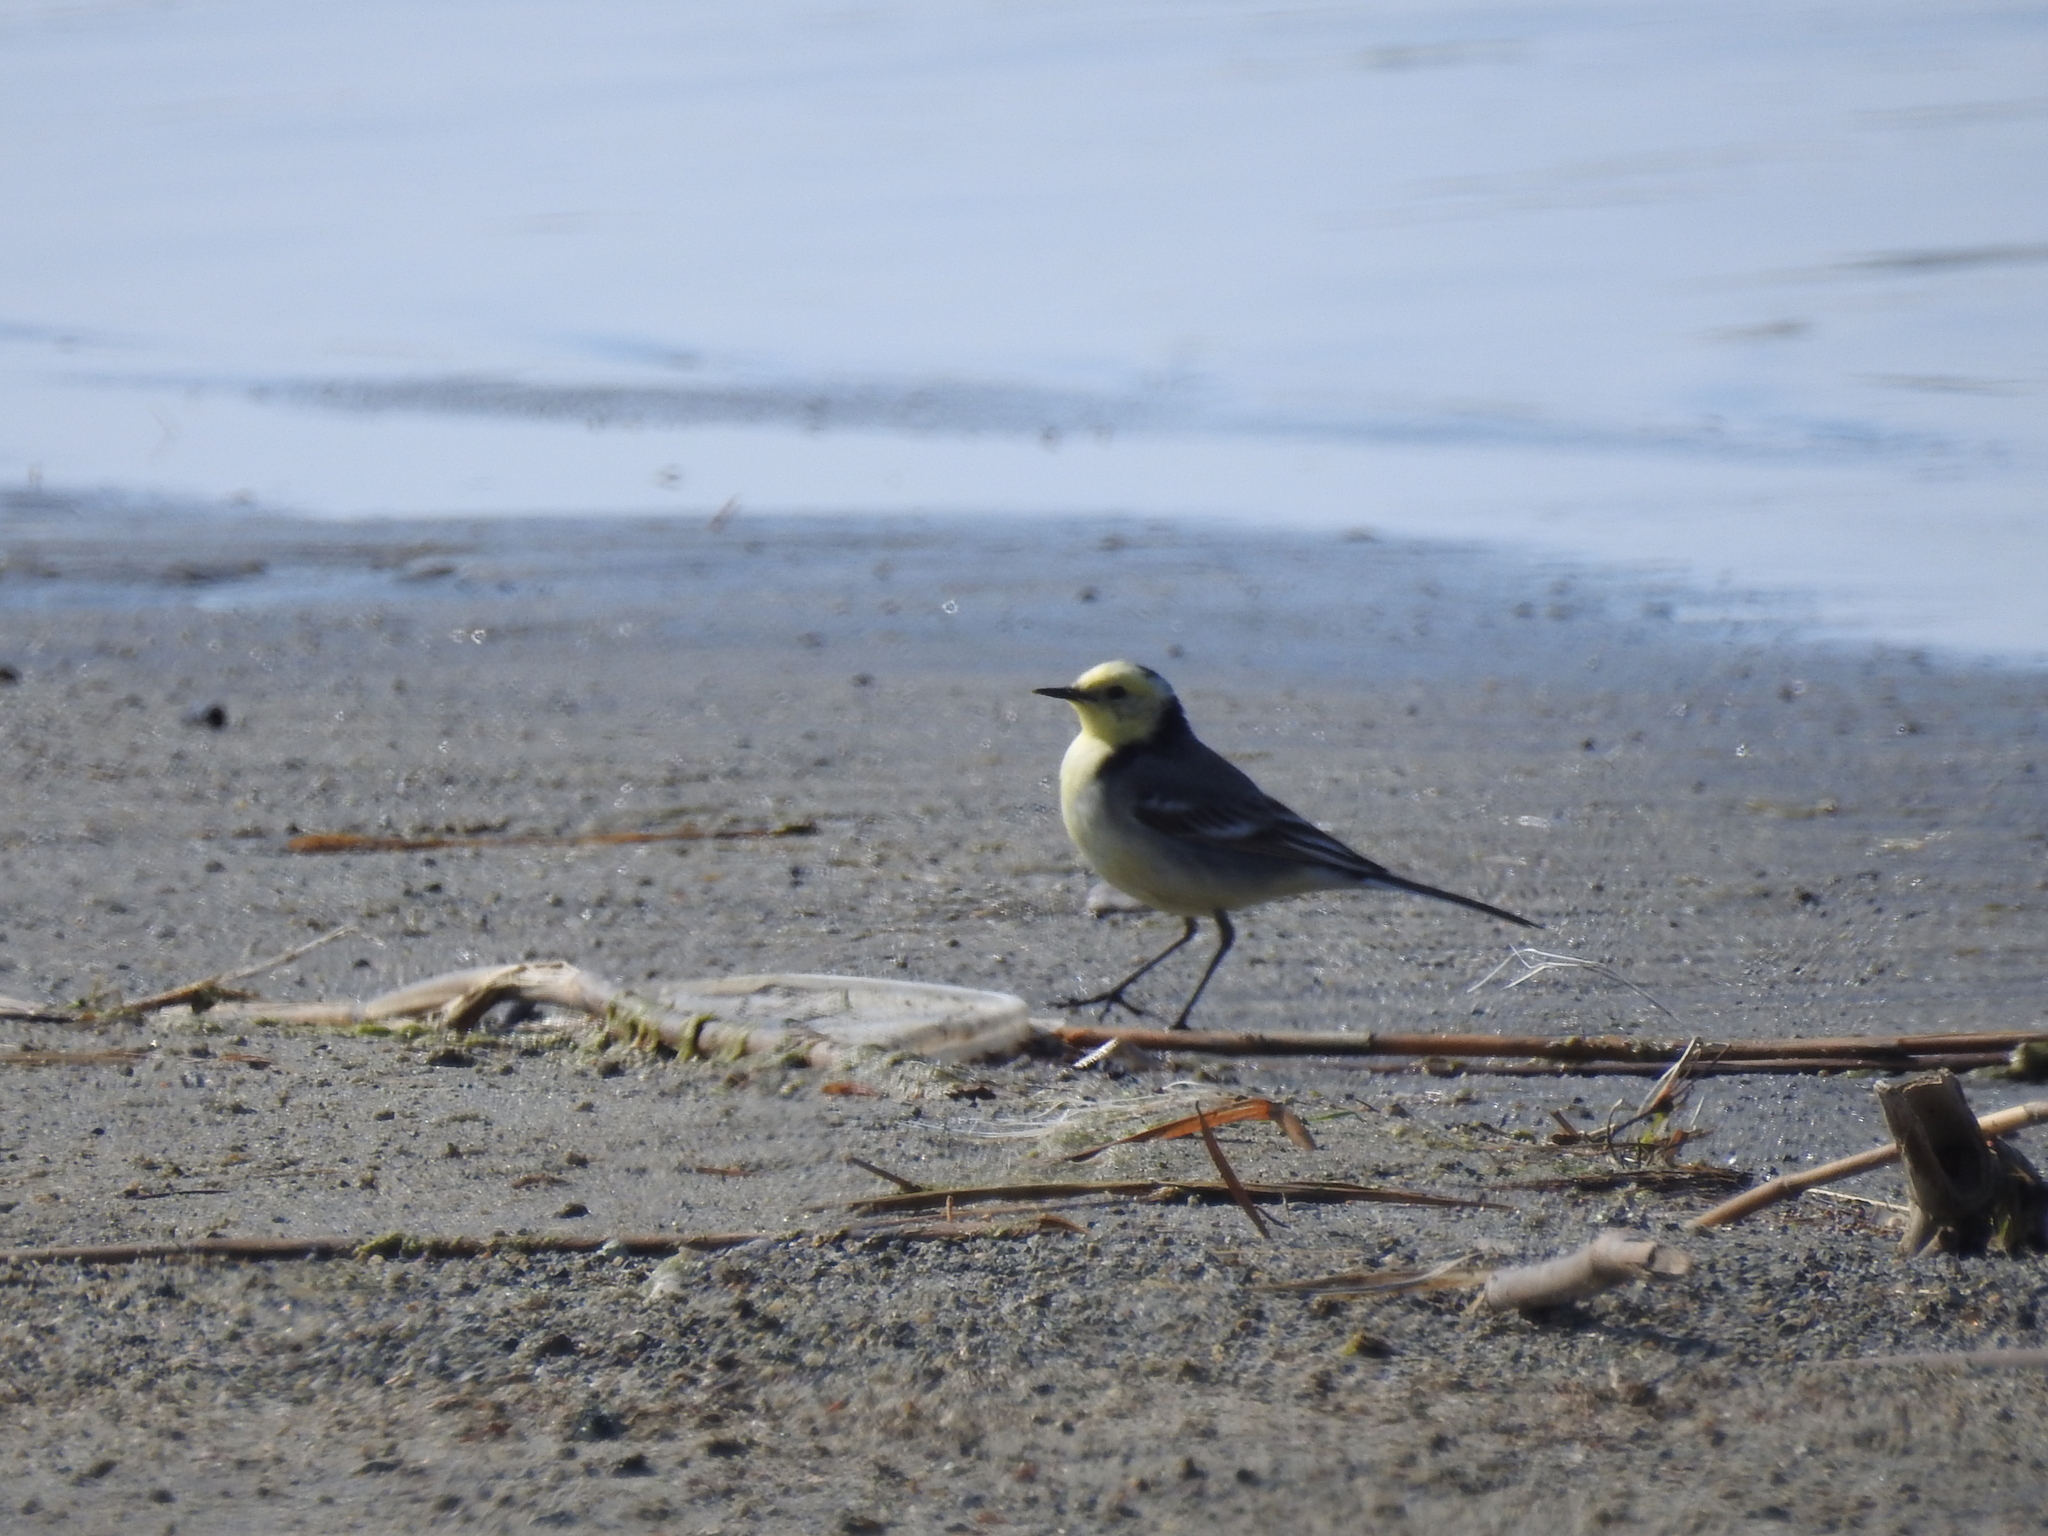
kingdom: Animalia
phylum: Chordata
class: Aves
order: Passeriformes
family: Motacillidae
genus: Motacilla
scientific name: Motacilla citreola
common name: Citrine wagtail
